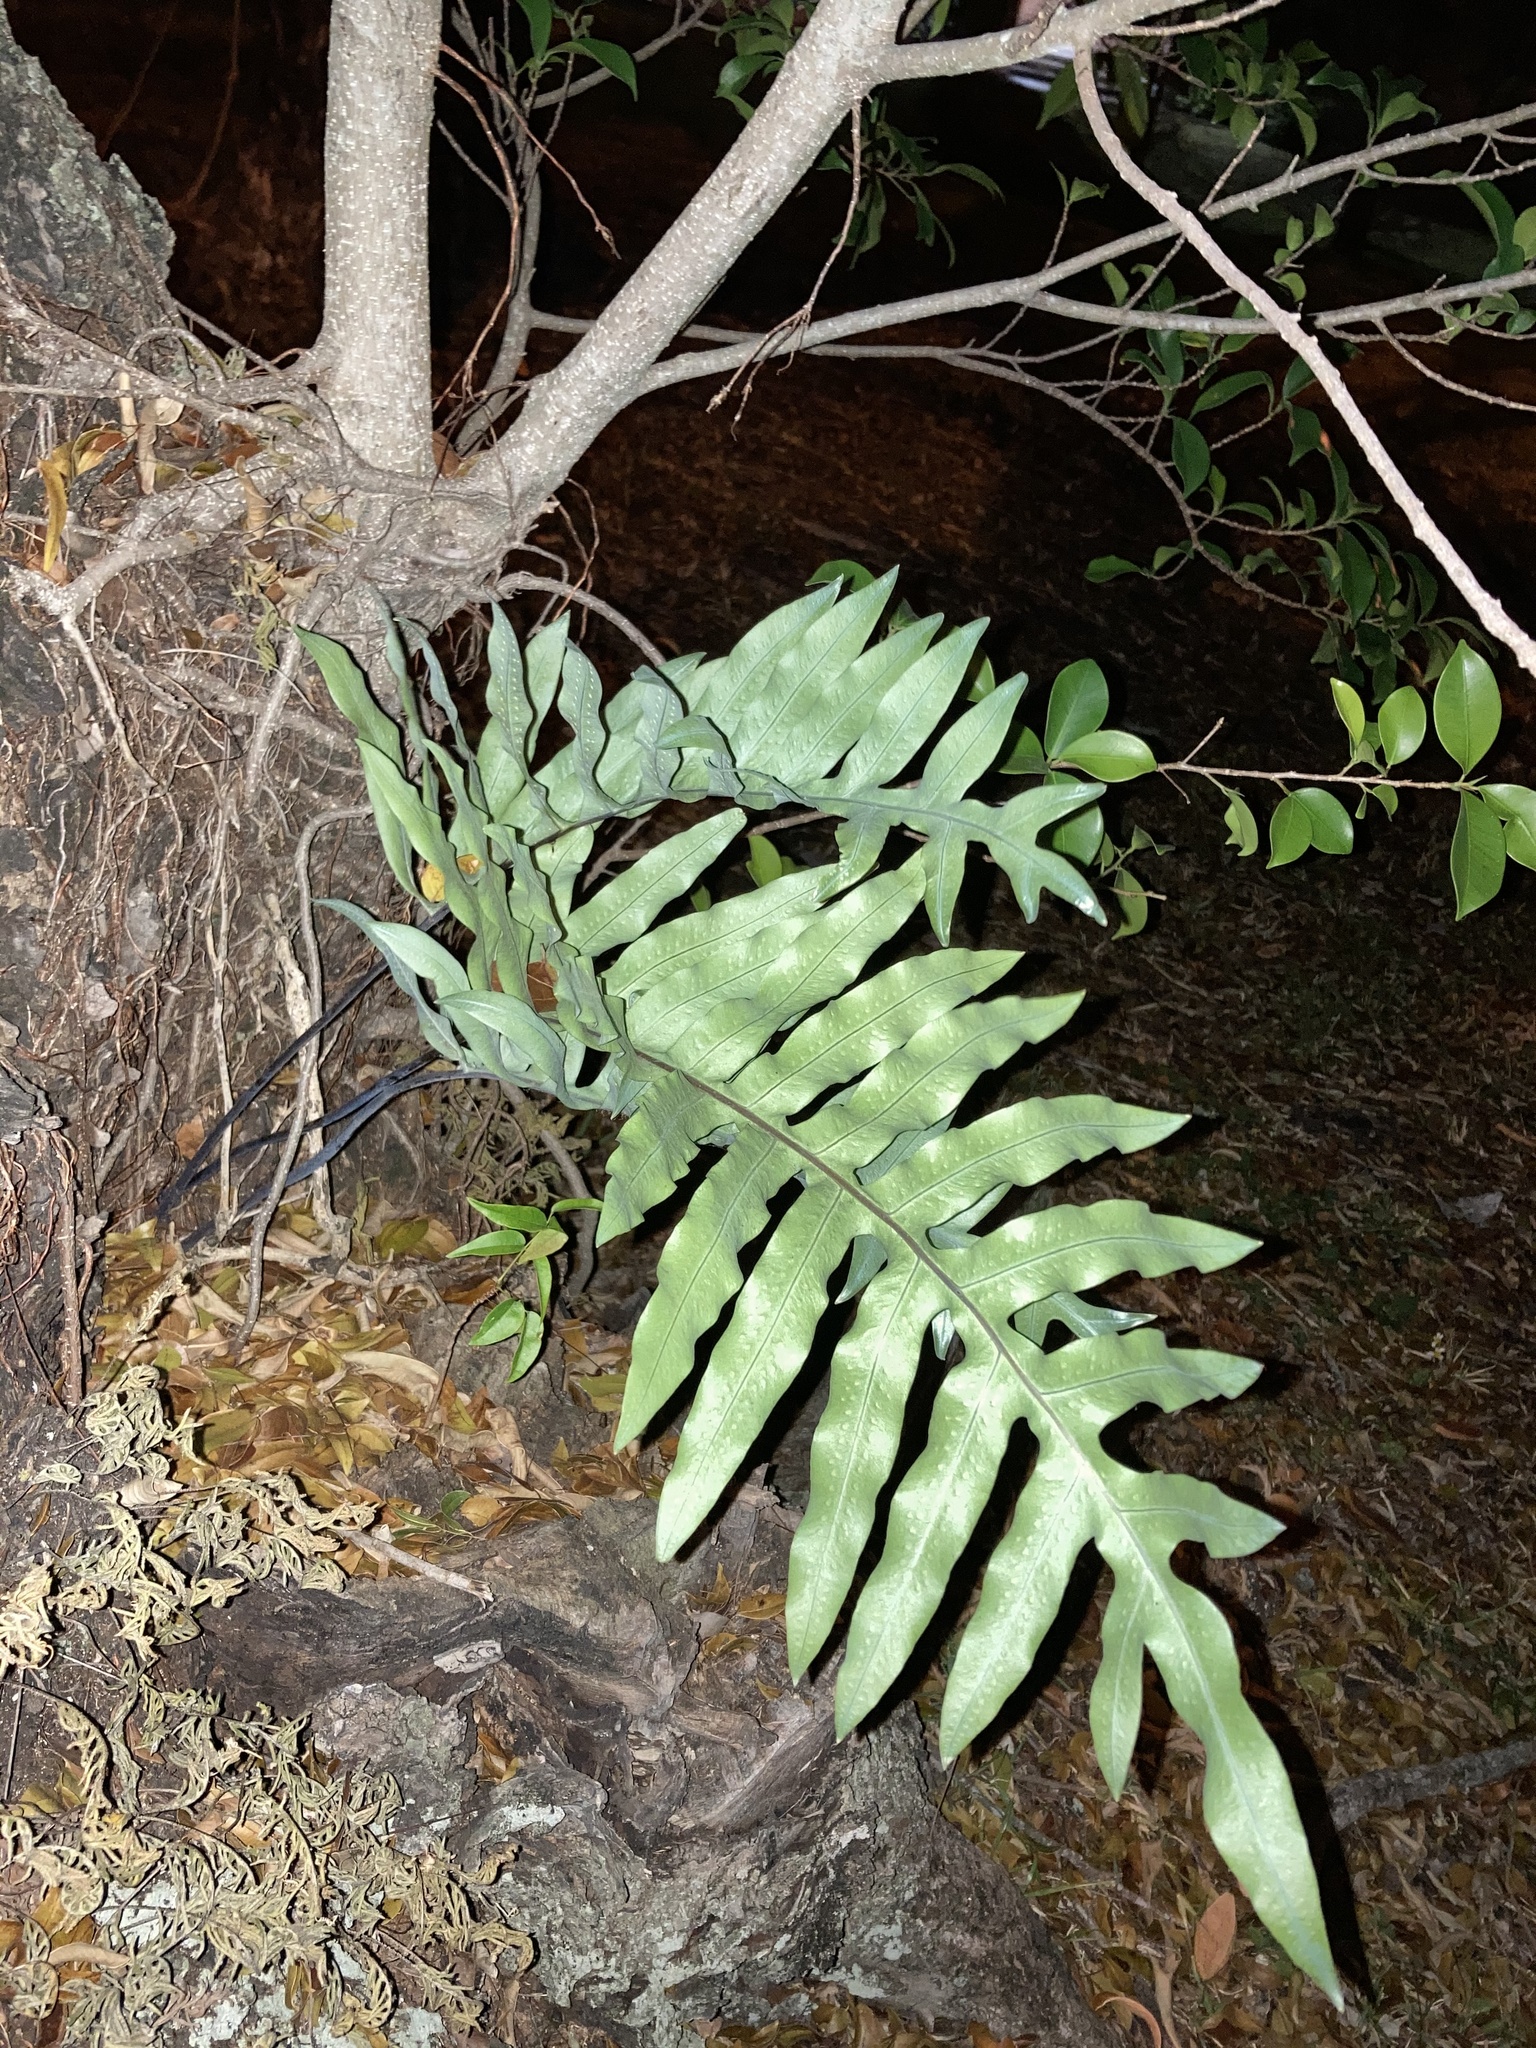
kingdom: Plantae
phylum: Tracheophyta
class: Polypodiopsida
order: Polypodiales
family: Polypodiaceae
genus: Phlebodium
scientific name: Phlebodium aureum
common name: Gold-foot fern
